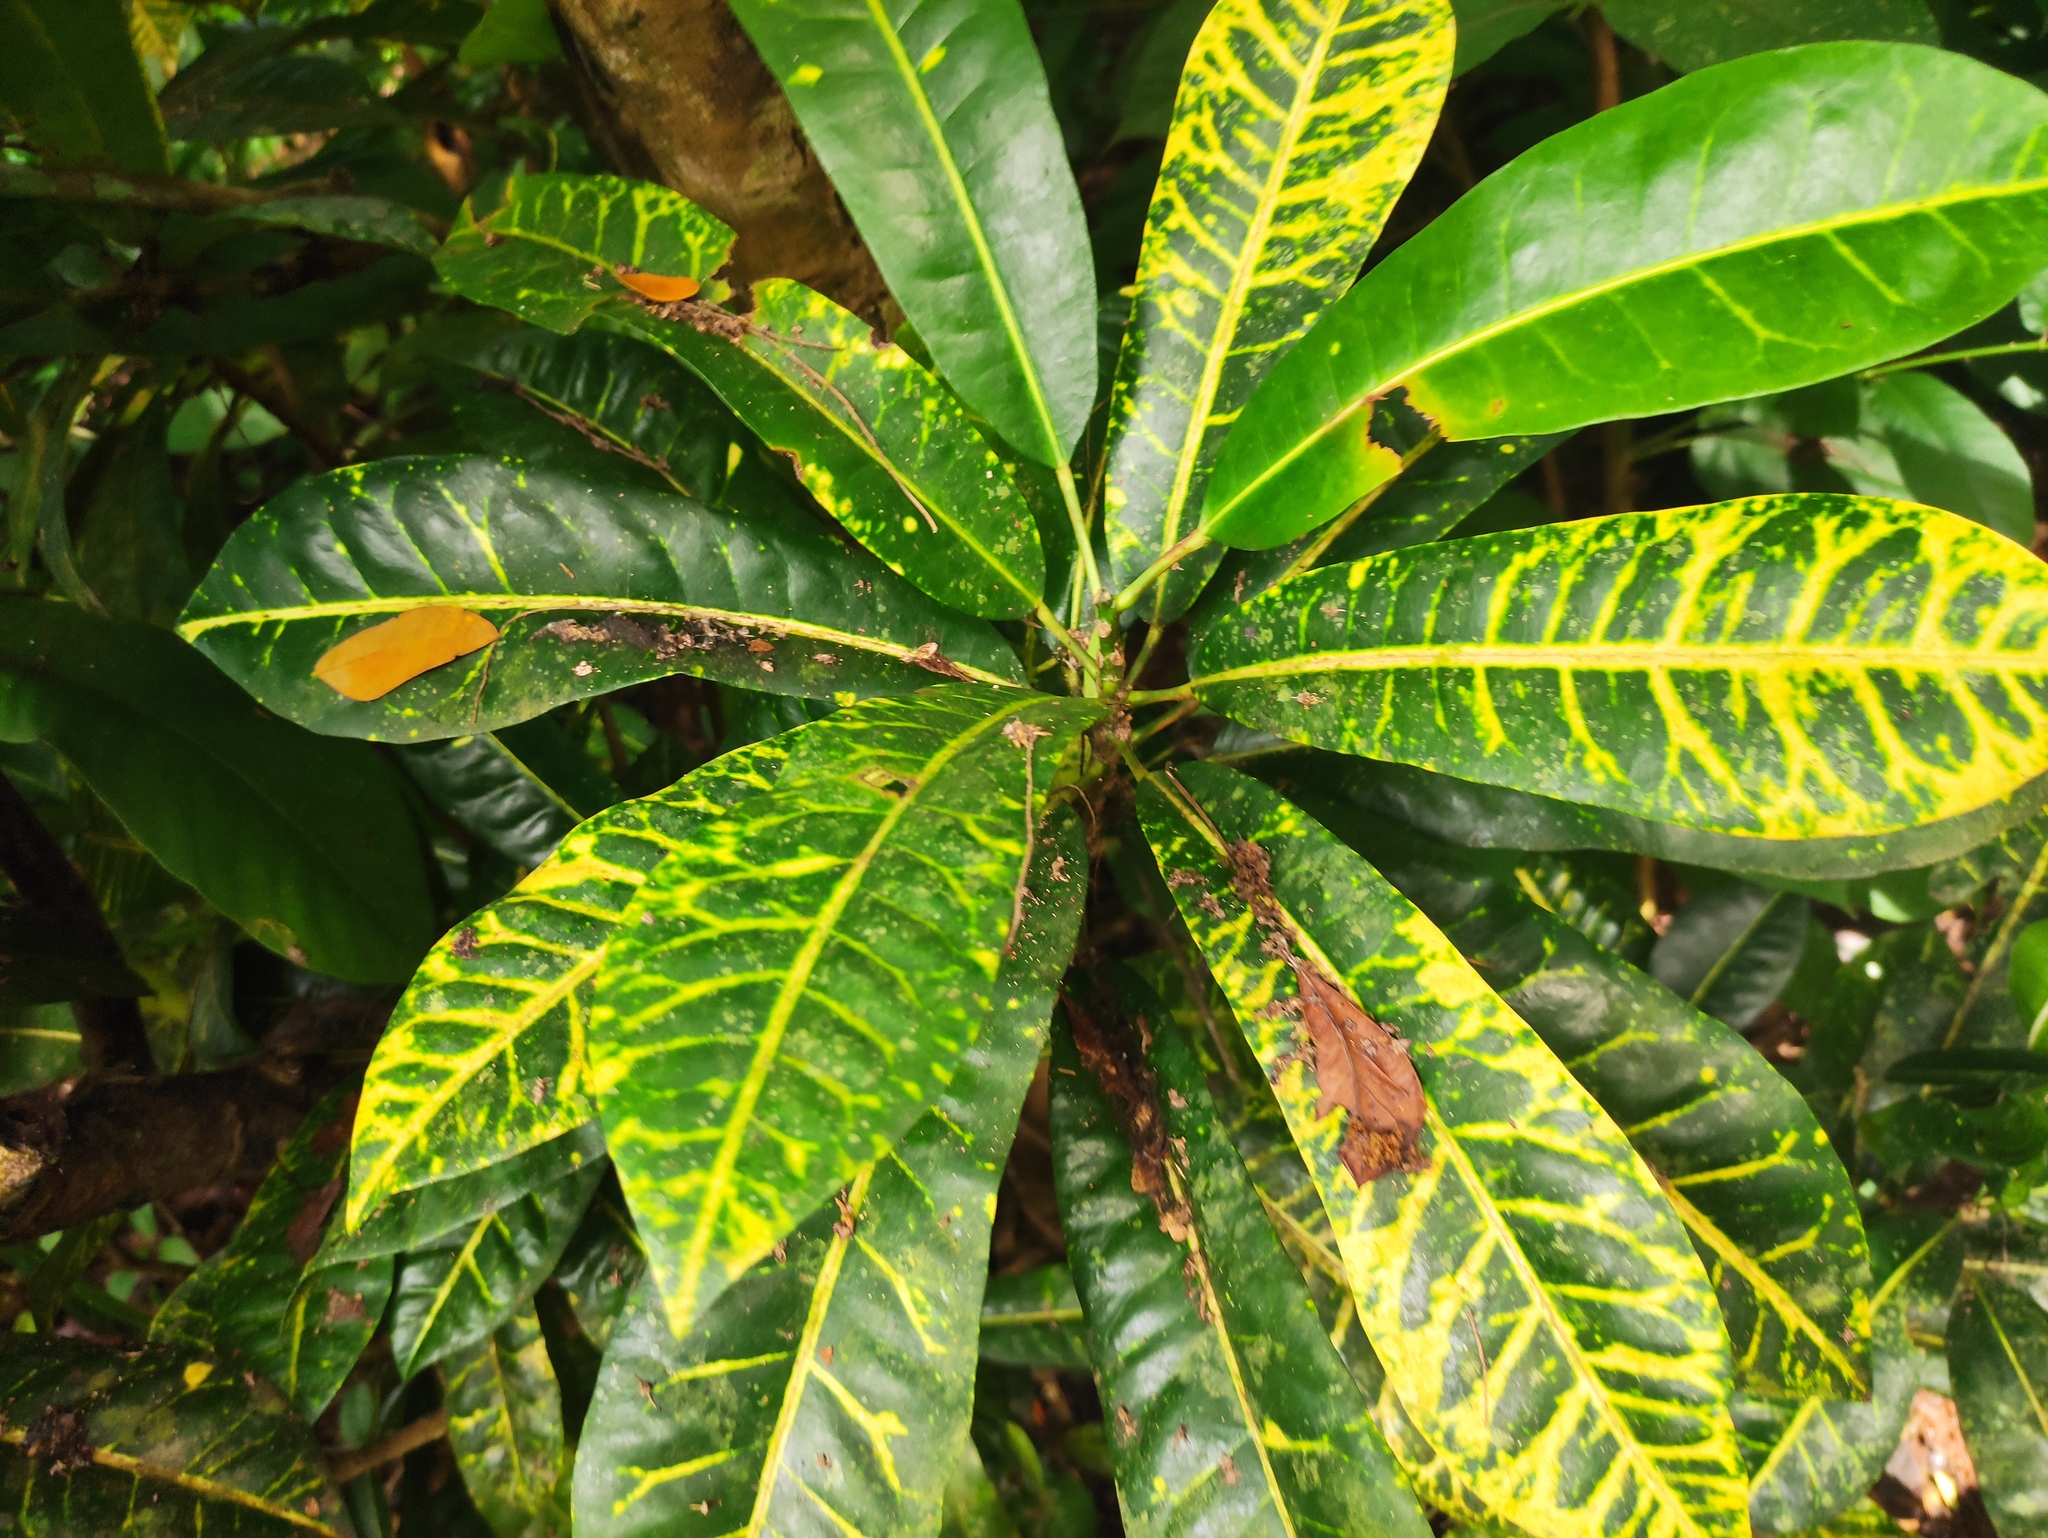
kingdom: Plantae
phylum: Tracheophyta
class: Magnoliopsida
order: Malpighiales
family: Euphorbiaceae
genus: Codiaeum
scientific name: Codiaeum variegatum
